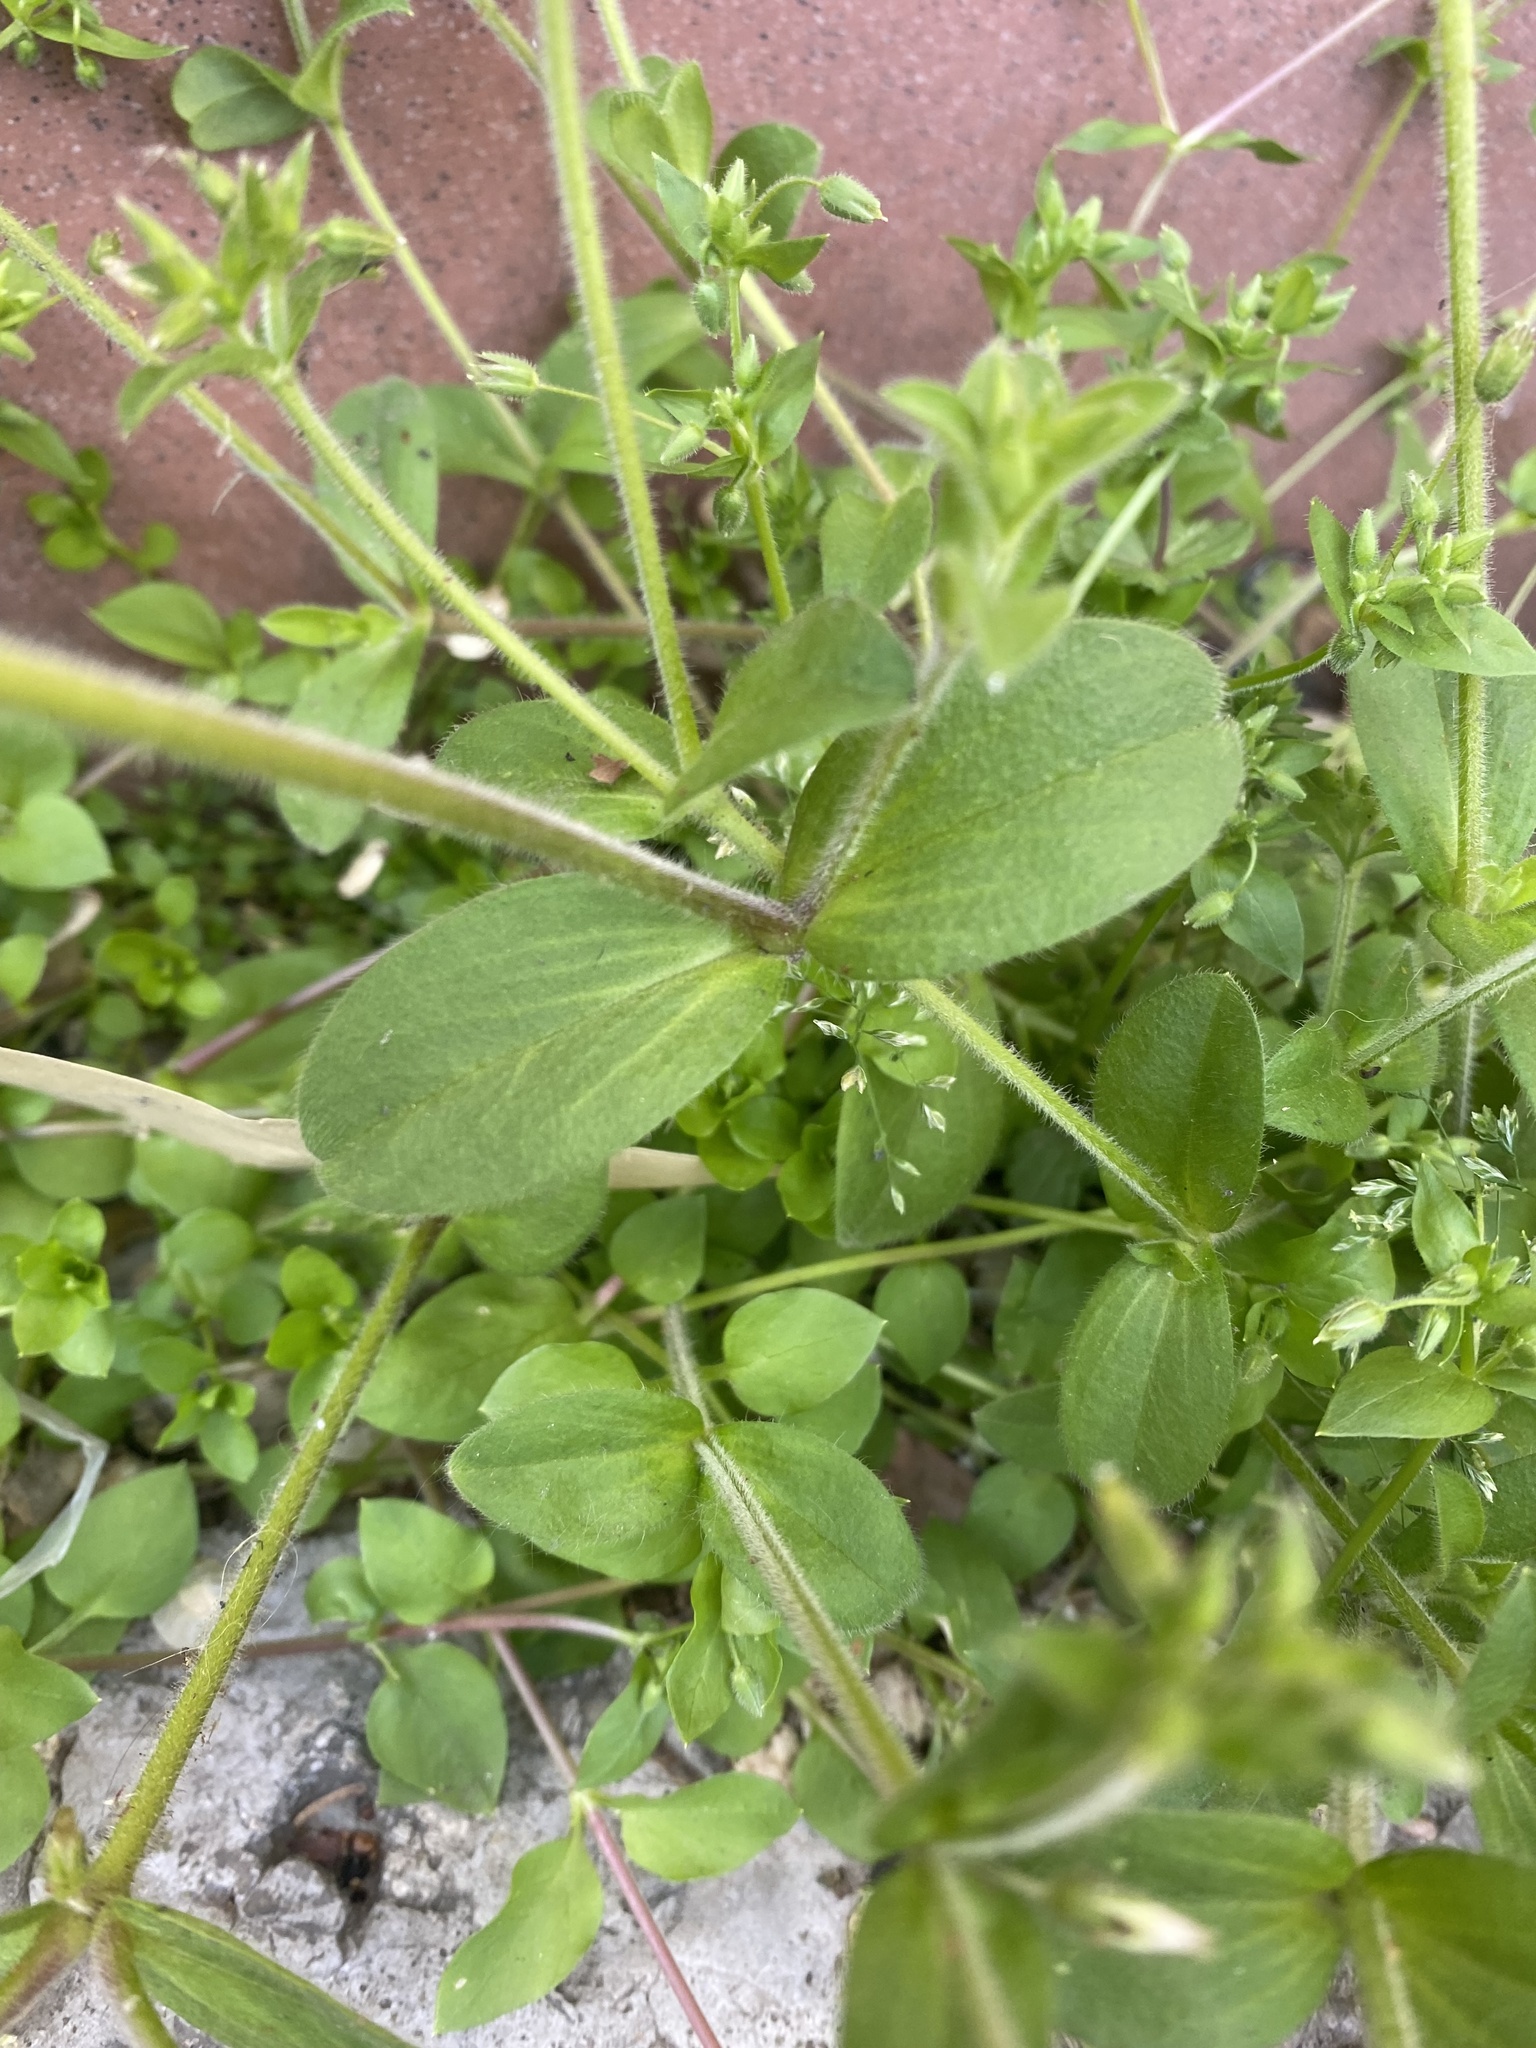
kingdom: Plantae
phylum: Tracheophyta
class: Magnoliopsida
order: Caryophyllales
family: Caryophyllaceae
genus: Cerastium
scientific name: Cerastium glomeratum
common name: Sticky chickweed
